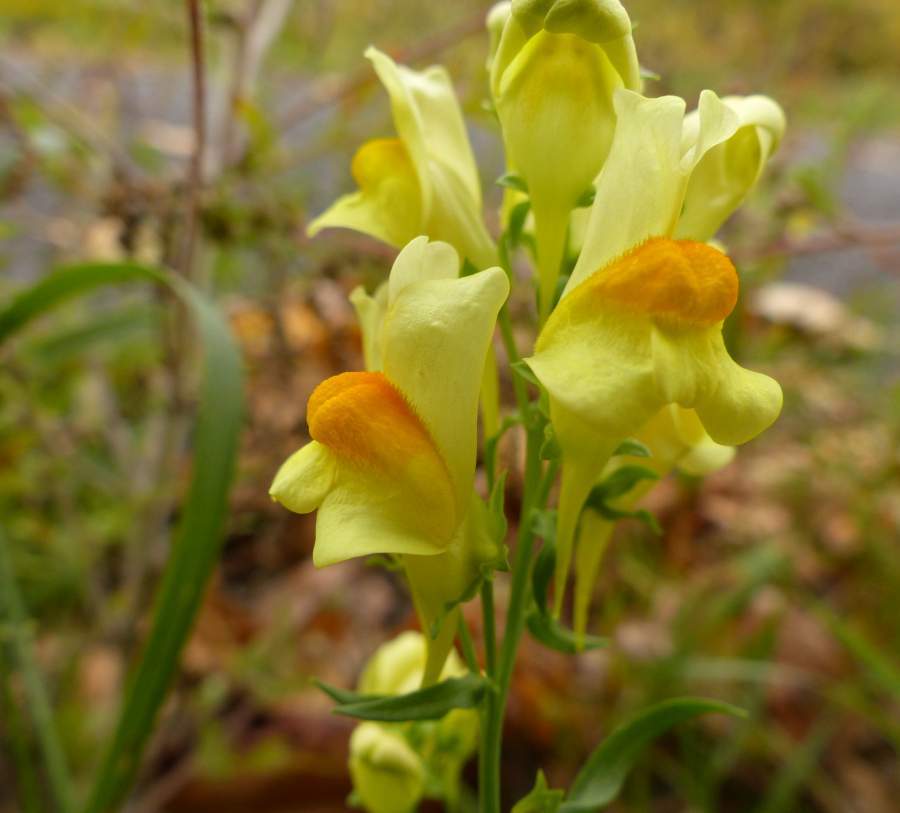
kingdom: Plantae
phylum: Tracheophyta
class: Magnoliopsida
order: Lamiales
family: Plantaginaceae
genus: Linaria
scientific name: Linaria vulgaris
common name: Butter and eggs
